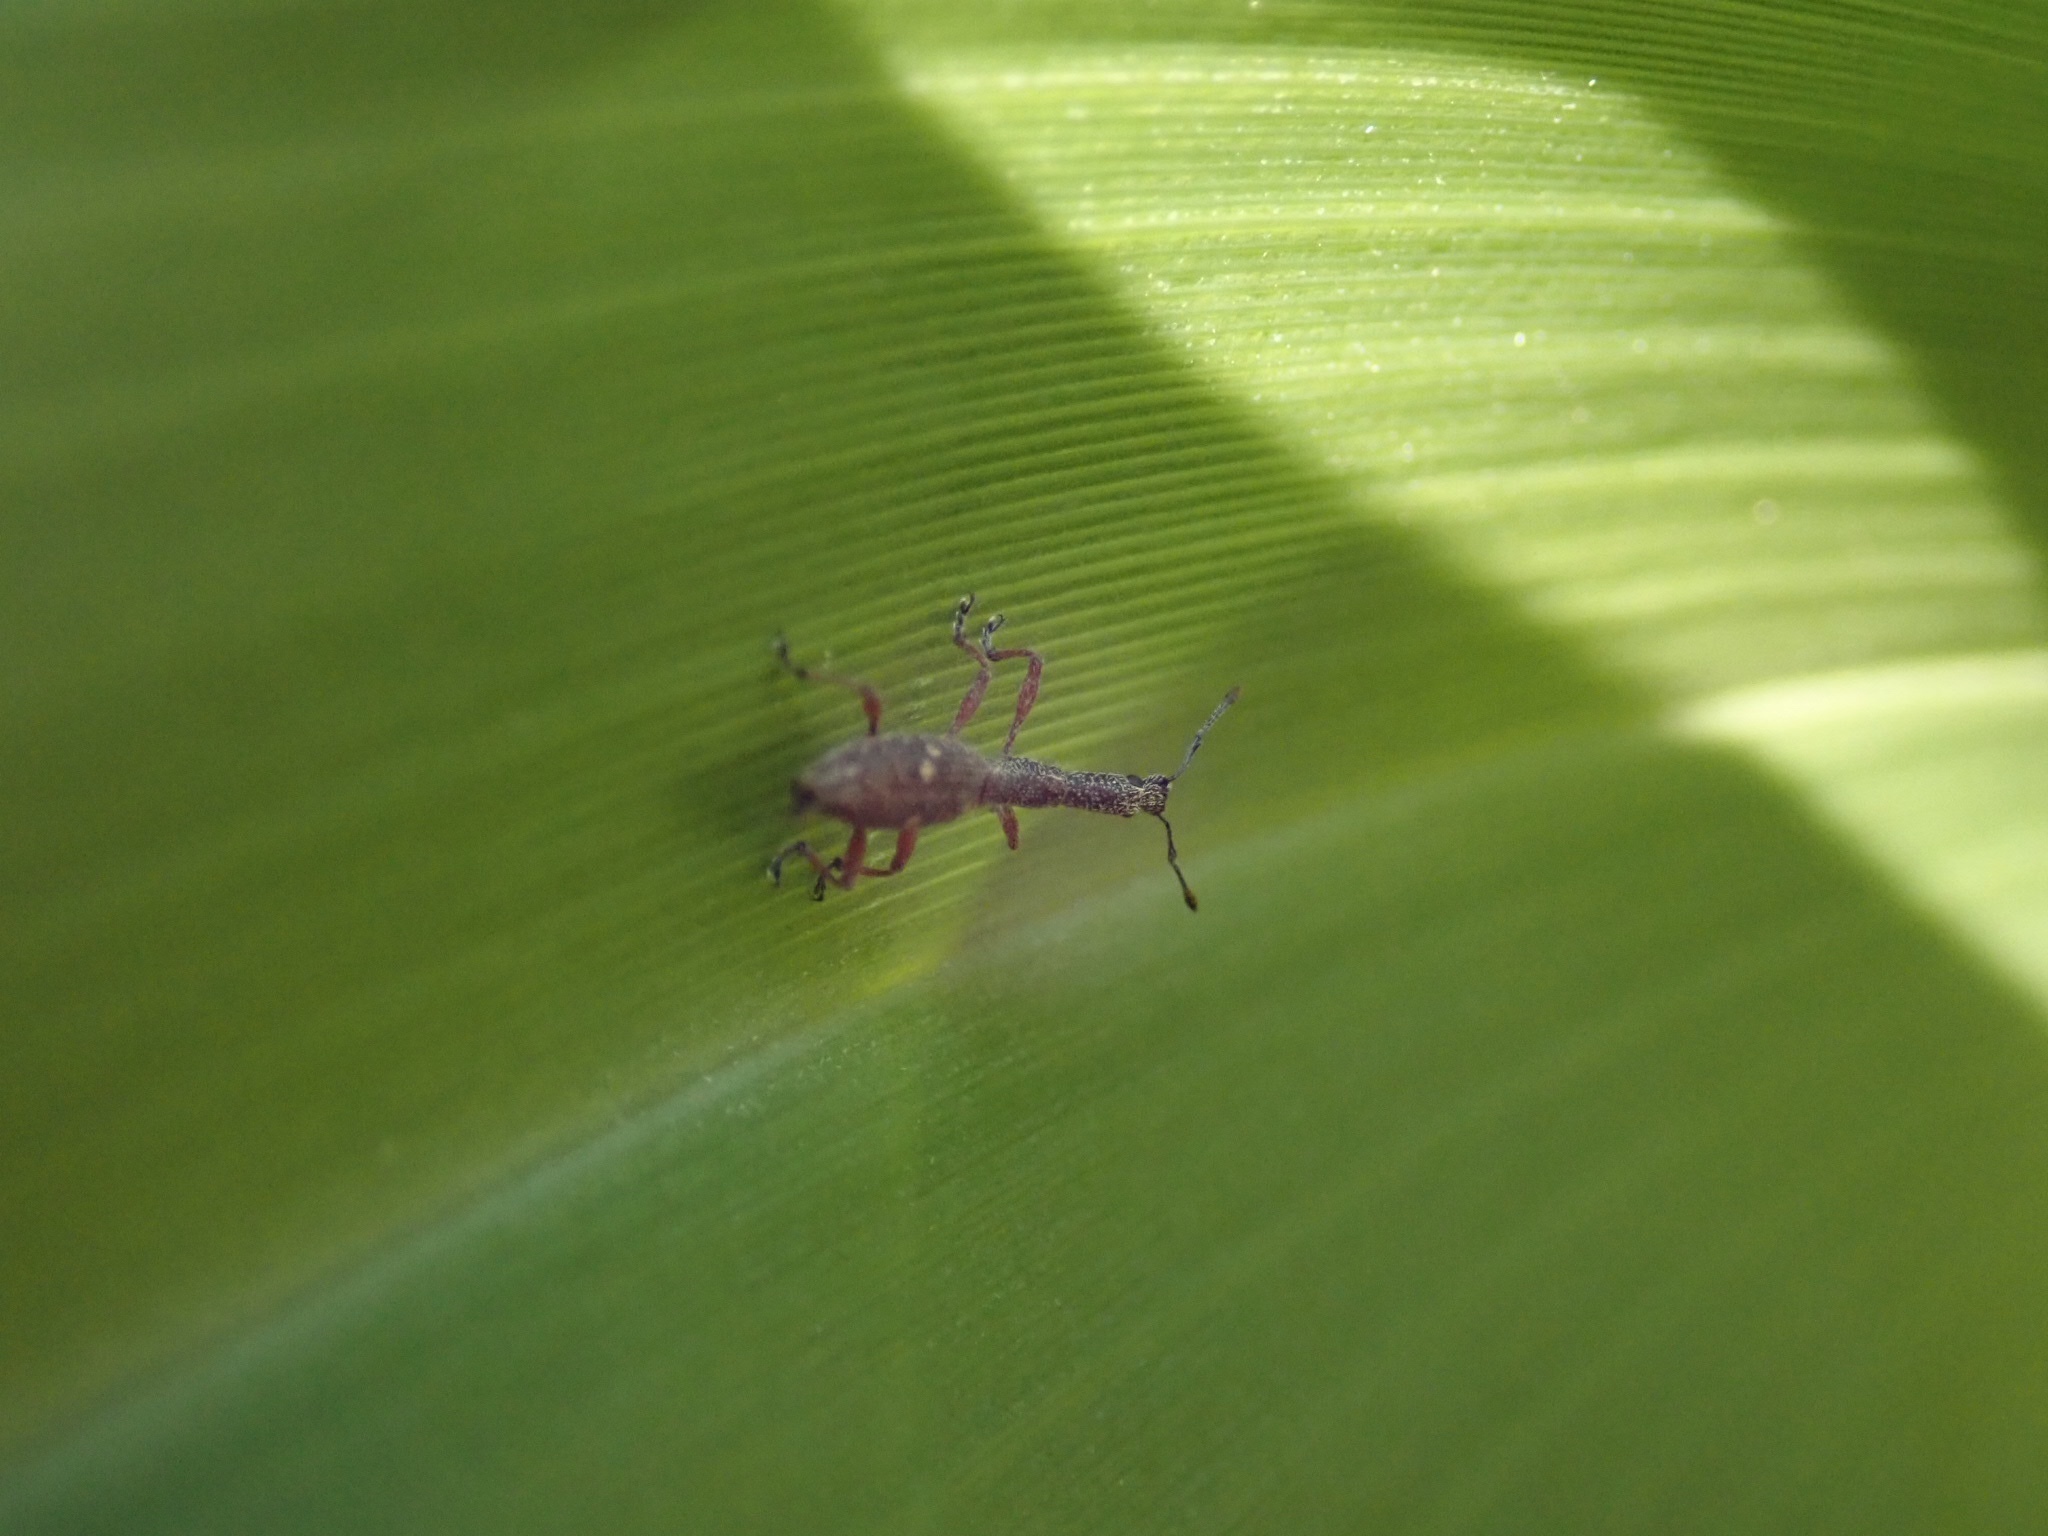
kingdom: Animalia
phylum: Arthropoda
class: Insecta
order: Coleoptera
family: Curculionidae
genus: Rhadinosomus
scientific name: Rhadinosomus acuminatus
